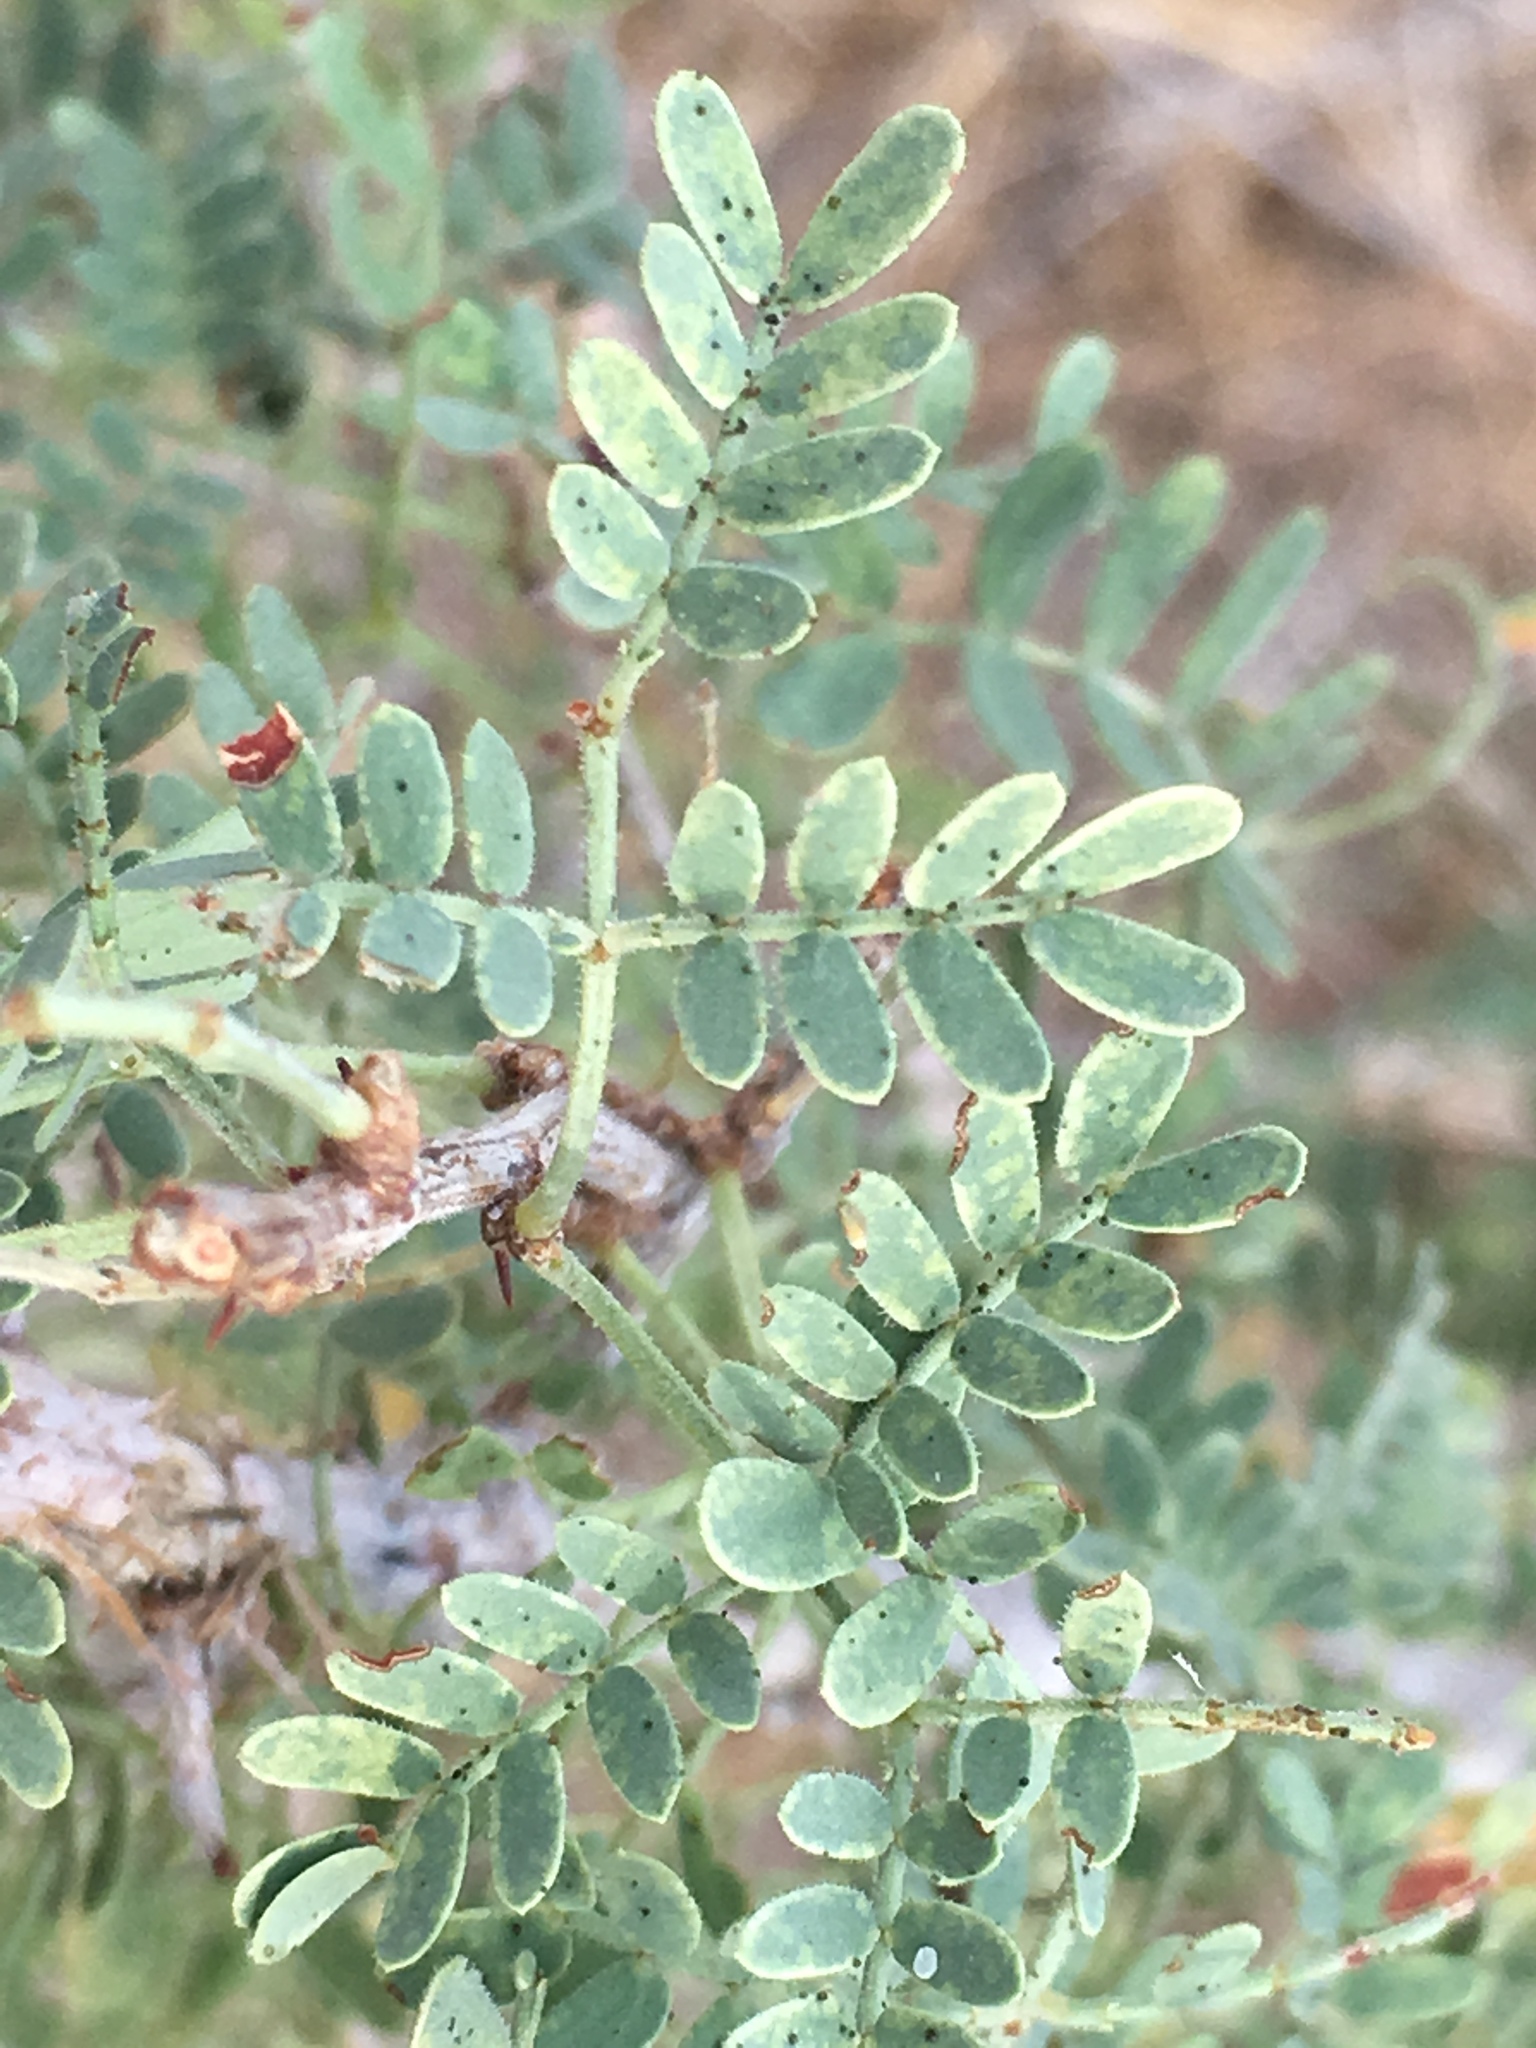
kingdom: Plantae
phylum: Tracheophyta
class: Magnoliopsida
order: Fabales
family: Fabaceae
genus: Senegalia
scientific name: Senegalia greggii
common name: Texas-mimosa
